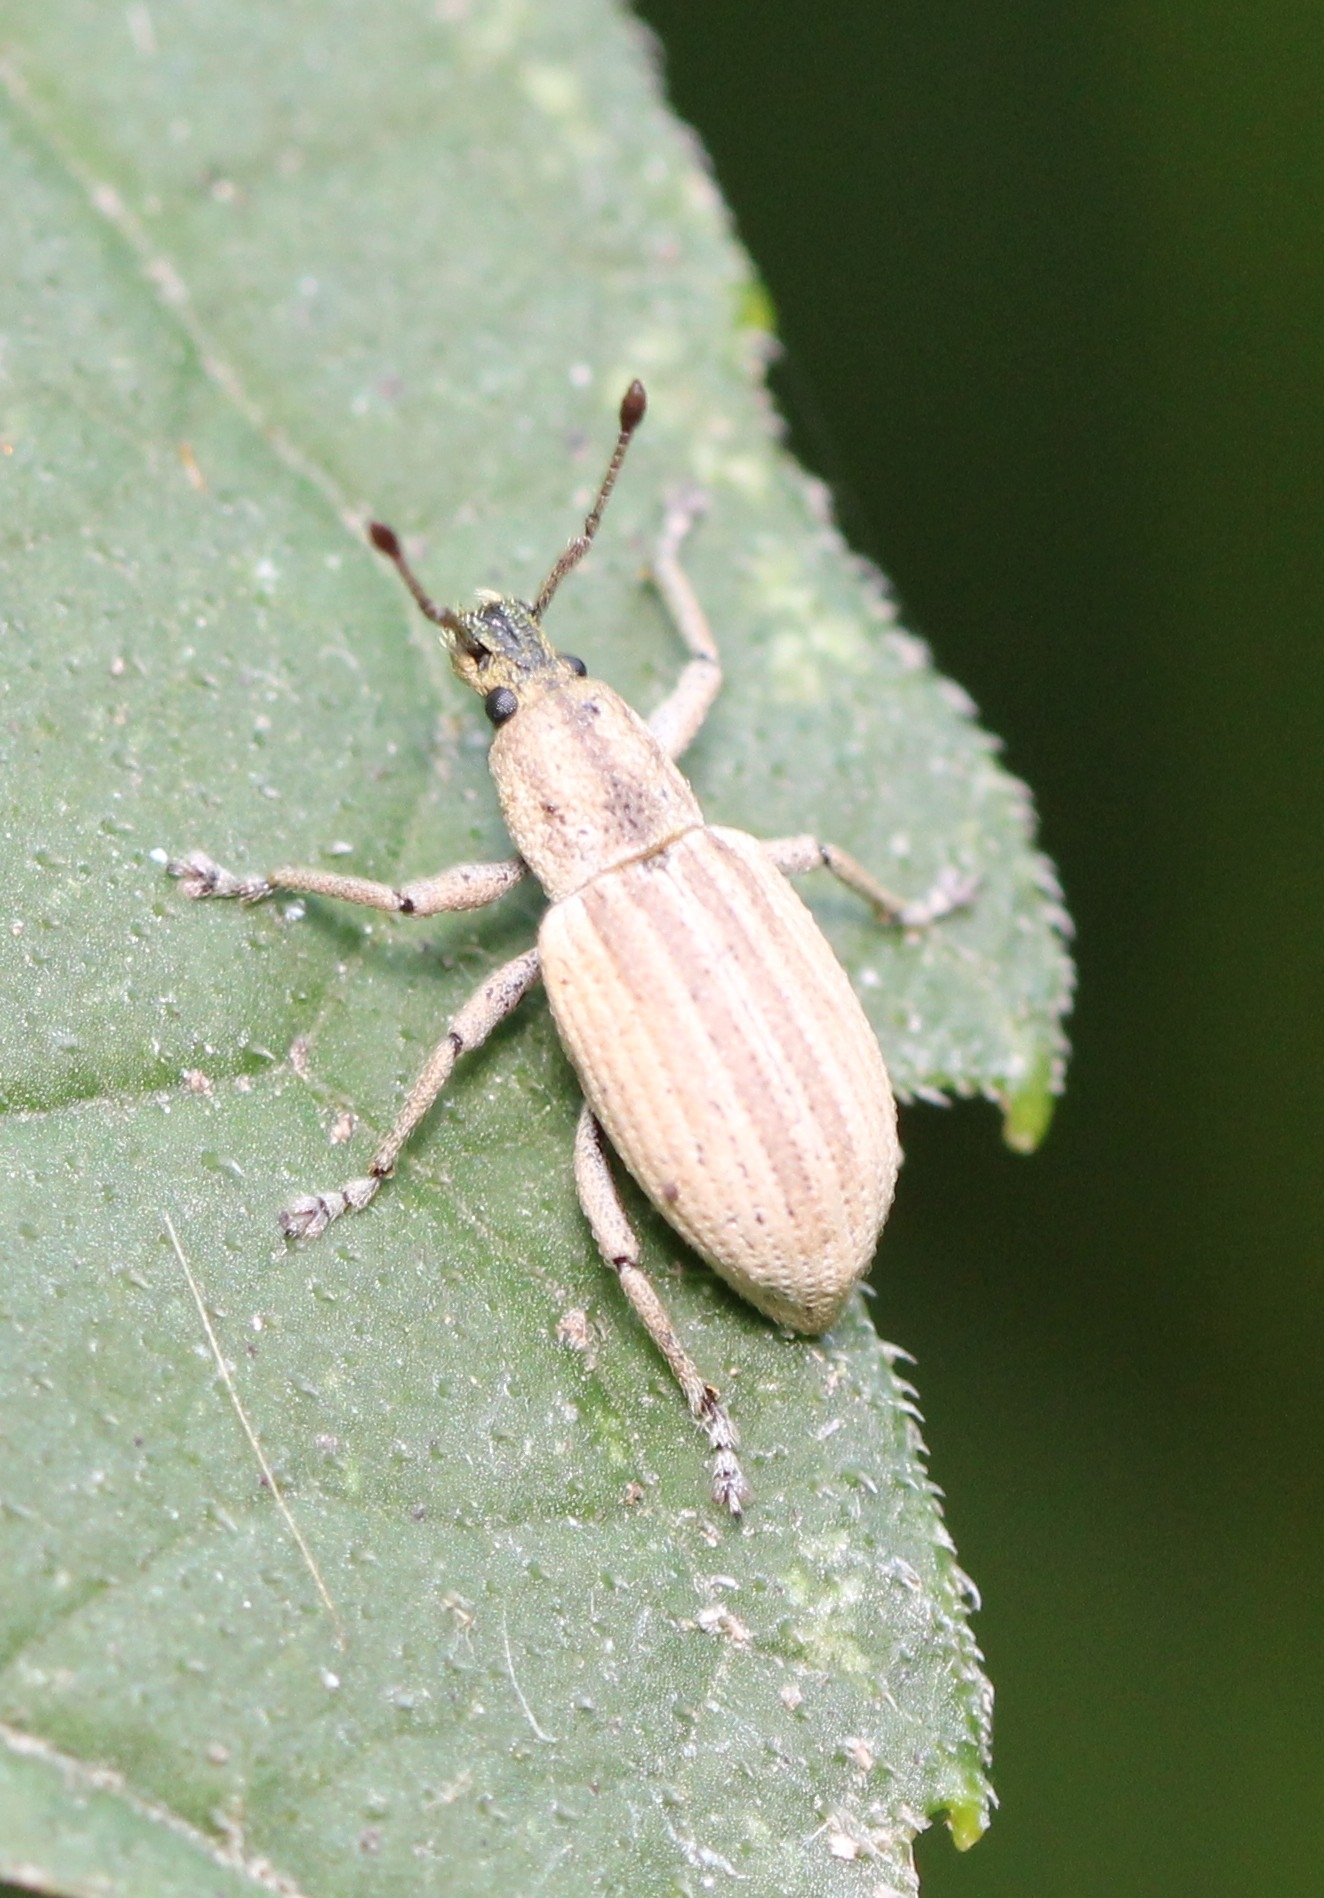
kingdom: Animalia
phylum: Arthropoda
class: Insecta
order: Coleoptera
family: Curculionidae
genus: Aphrastus
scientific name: Aphrastus taeniatus
